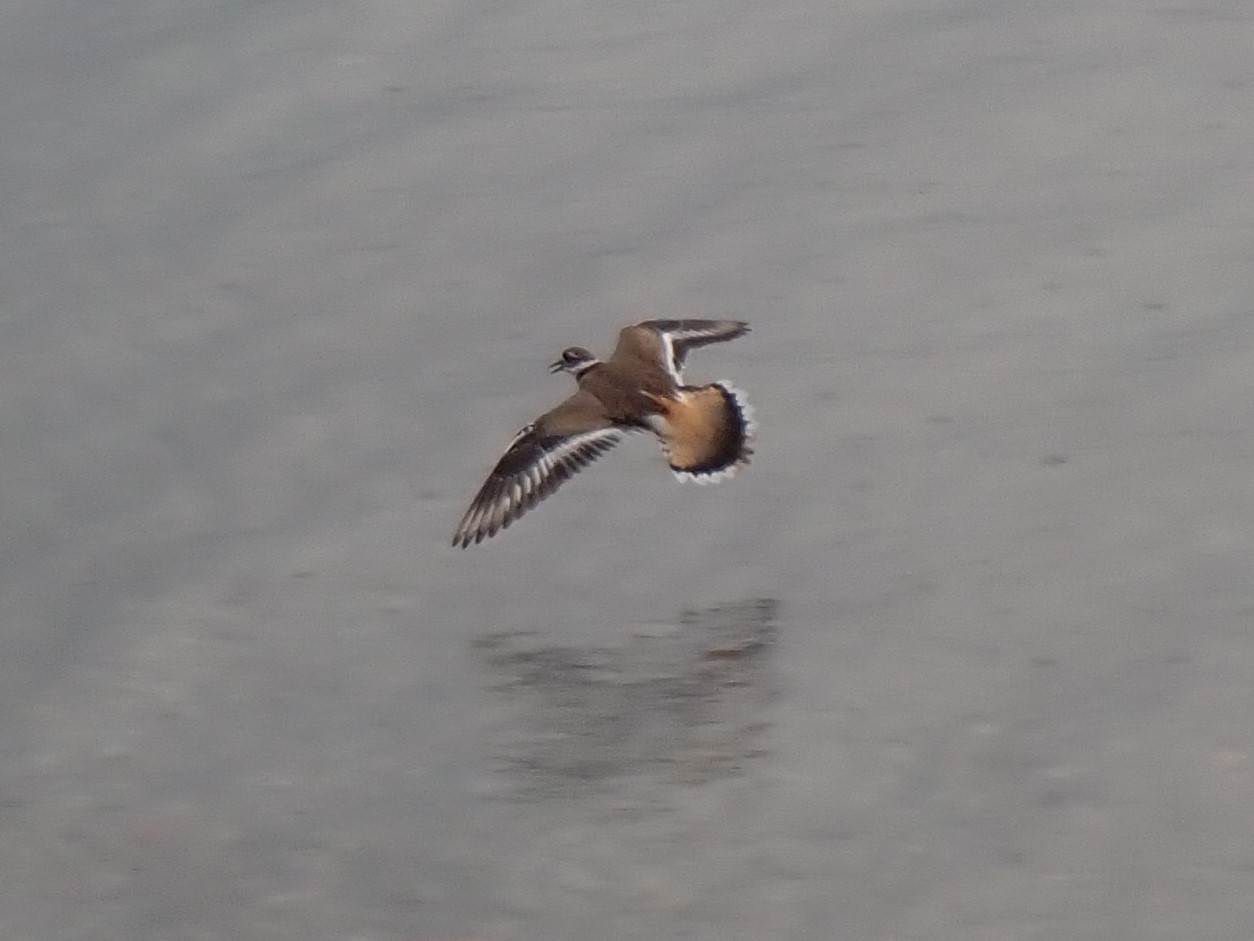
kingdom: Animalia
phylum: Chordata
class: Aves
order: Charadriiformes
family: Charadriidae
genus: Charadrius
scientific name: Charadrius vociferus
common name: Killdeer
